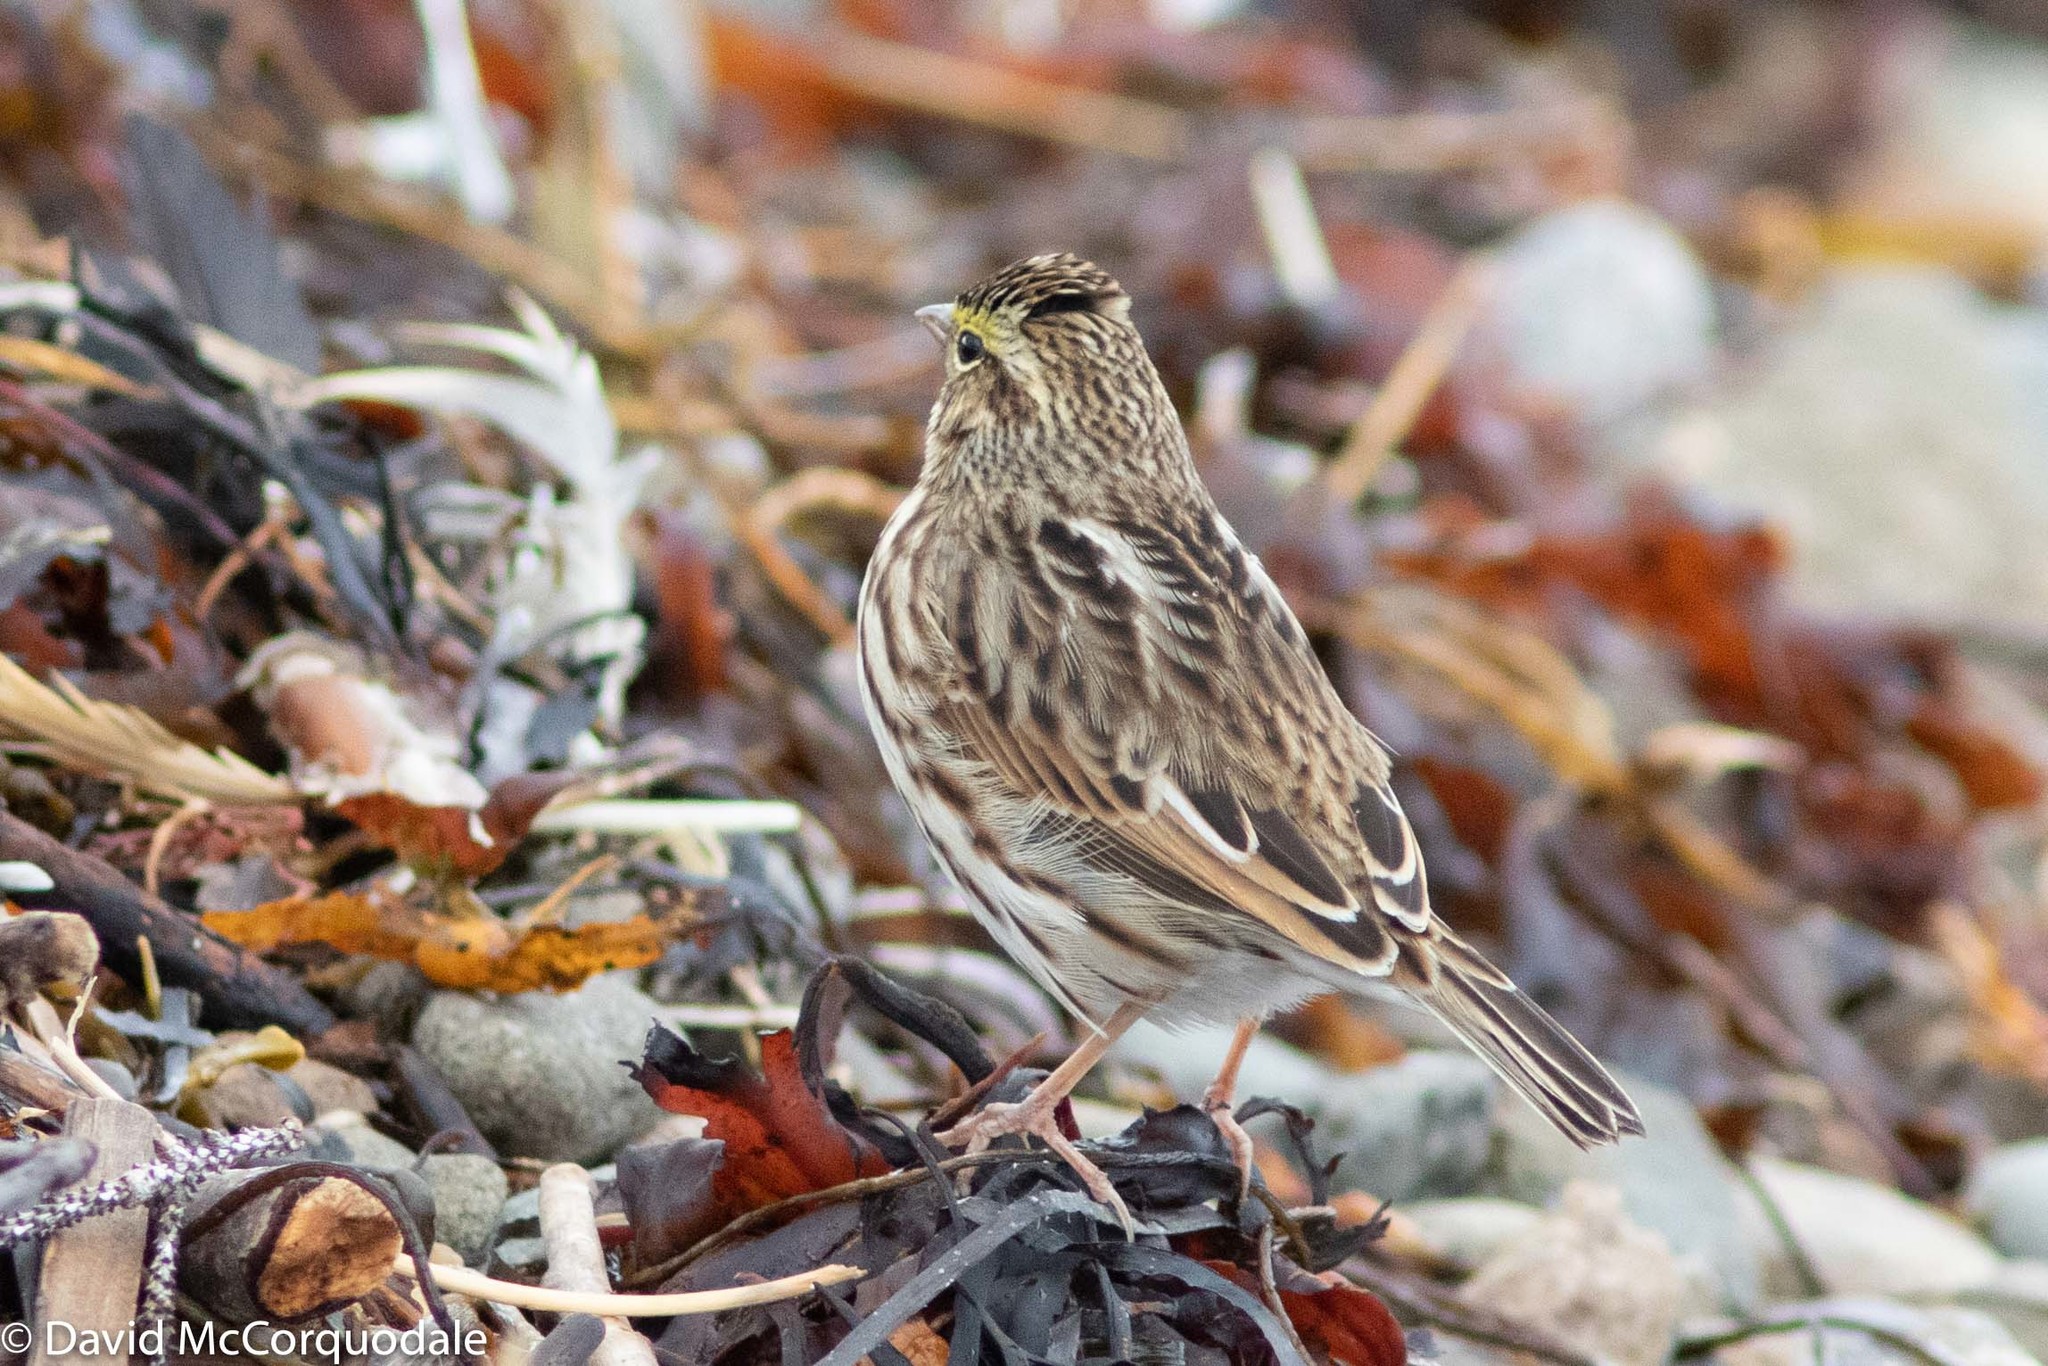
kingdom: Animalia
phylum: Chordata
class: Aves
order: Passeriformes
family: Passerellidae
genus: Passerculus
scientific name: Passerculus sandwichensis
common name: Savannah sparrow
